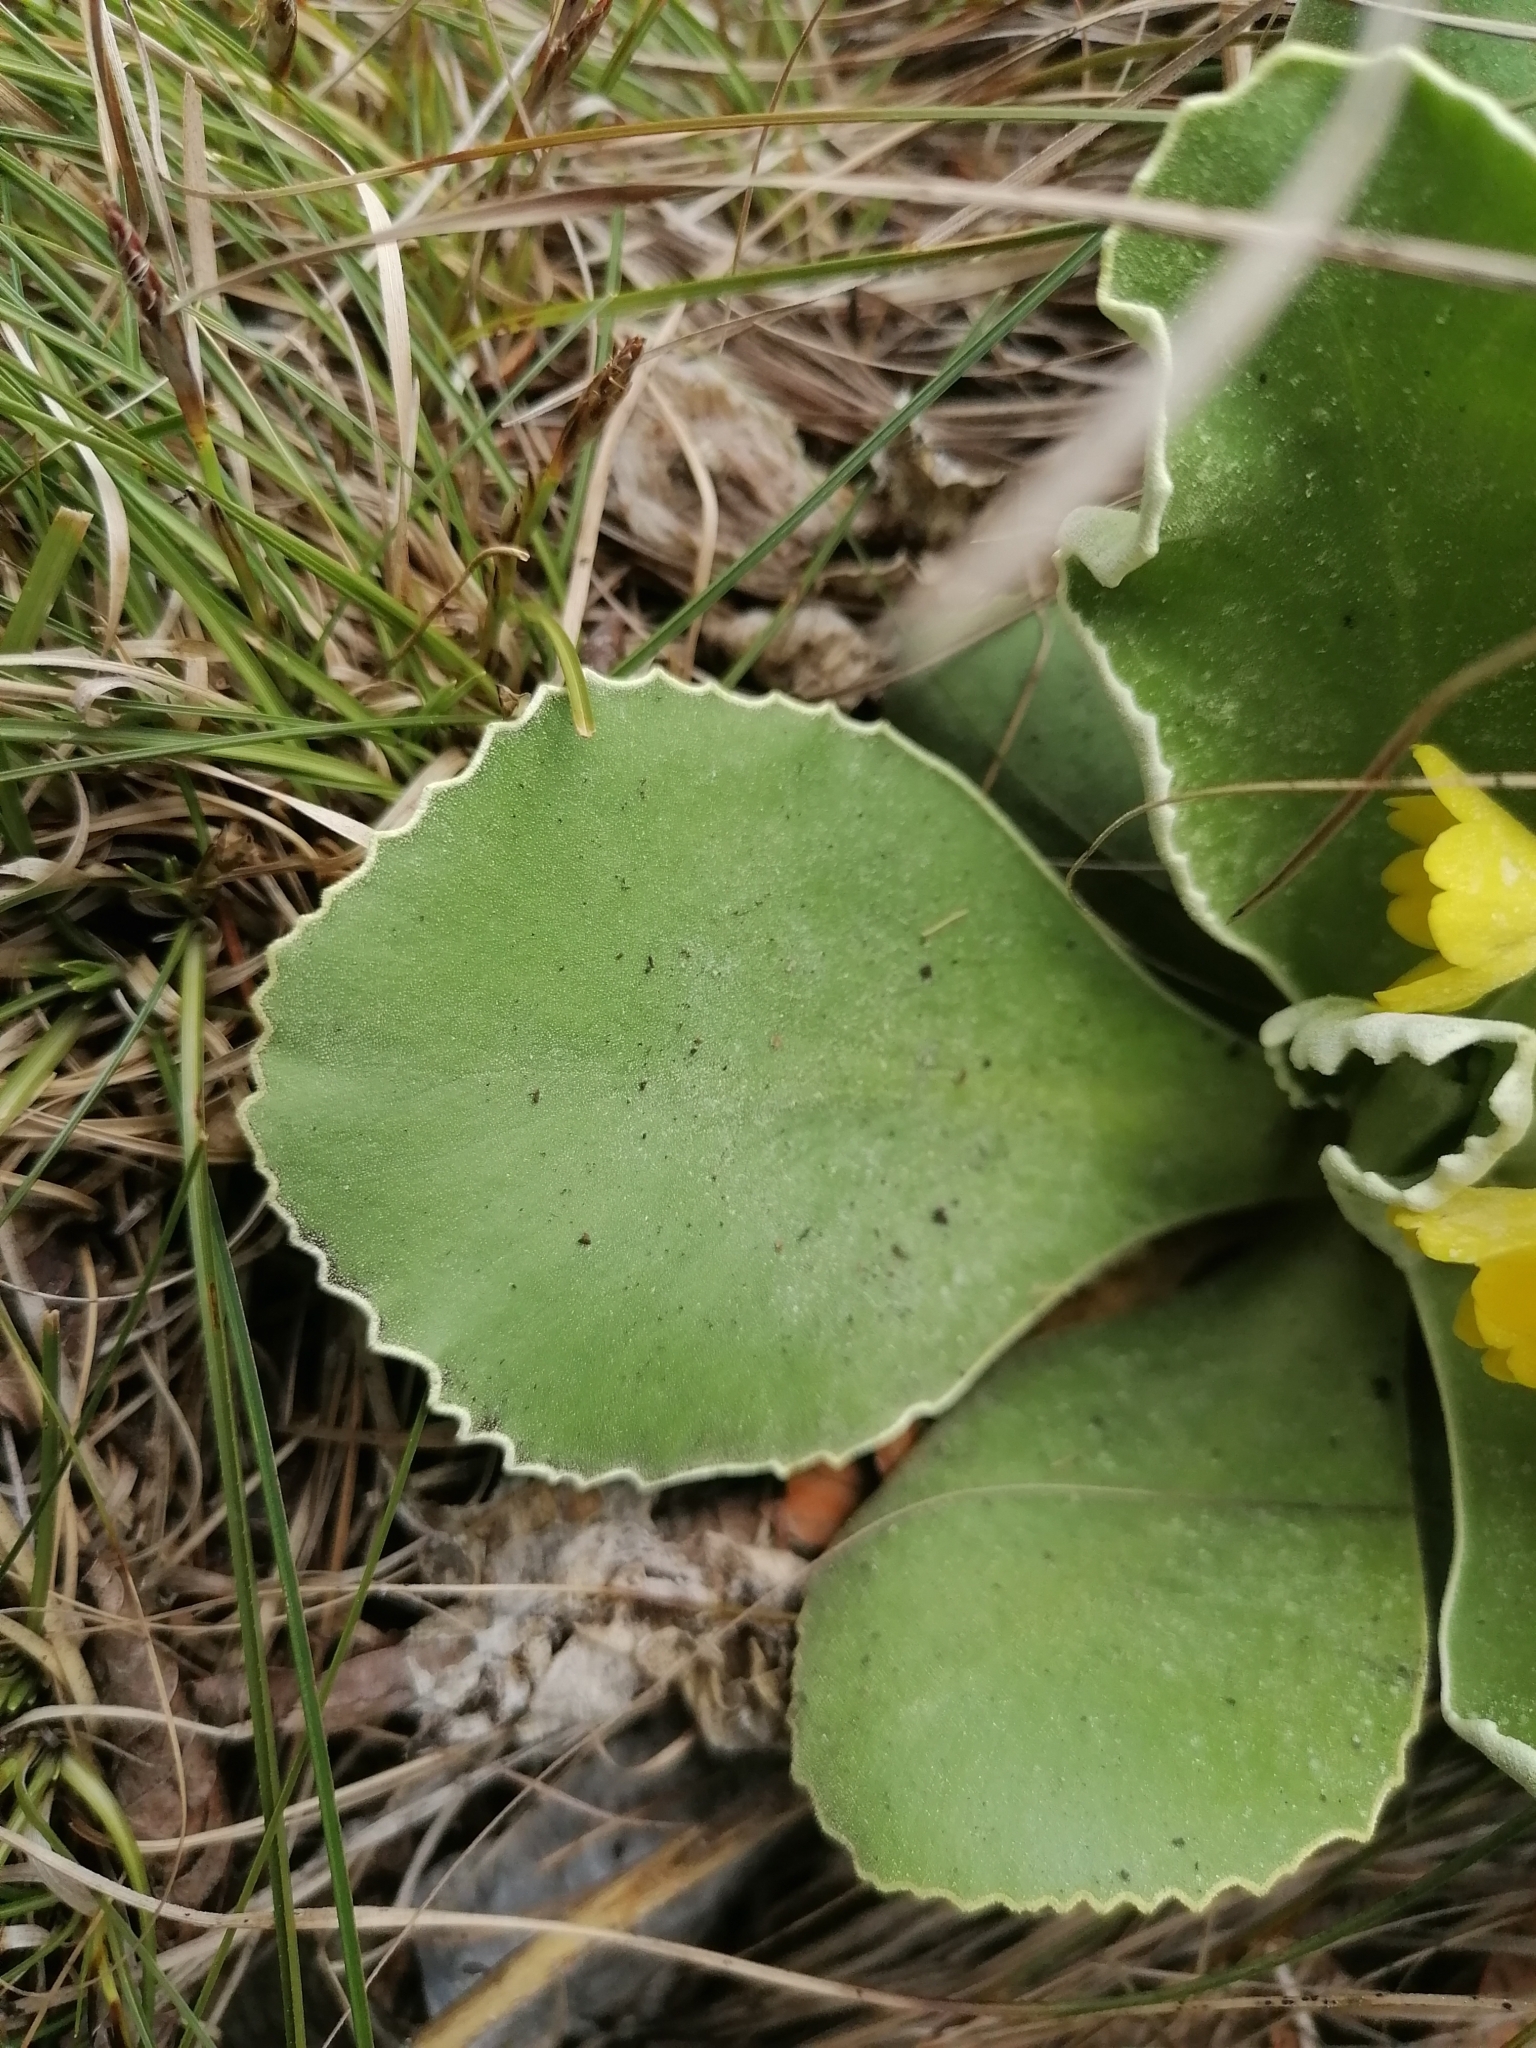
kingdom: Plantae
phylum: Tracheophyta
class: Magnoliopsida
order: Ericales
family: Primulaceae
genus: Primula
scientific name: Primula auricula
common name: Auricula
